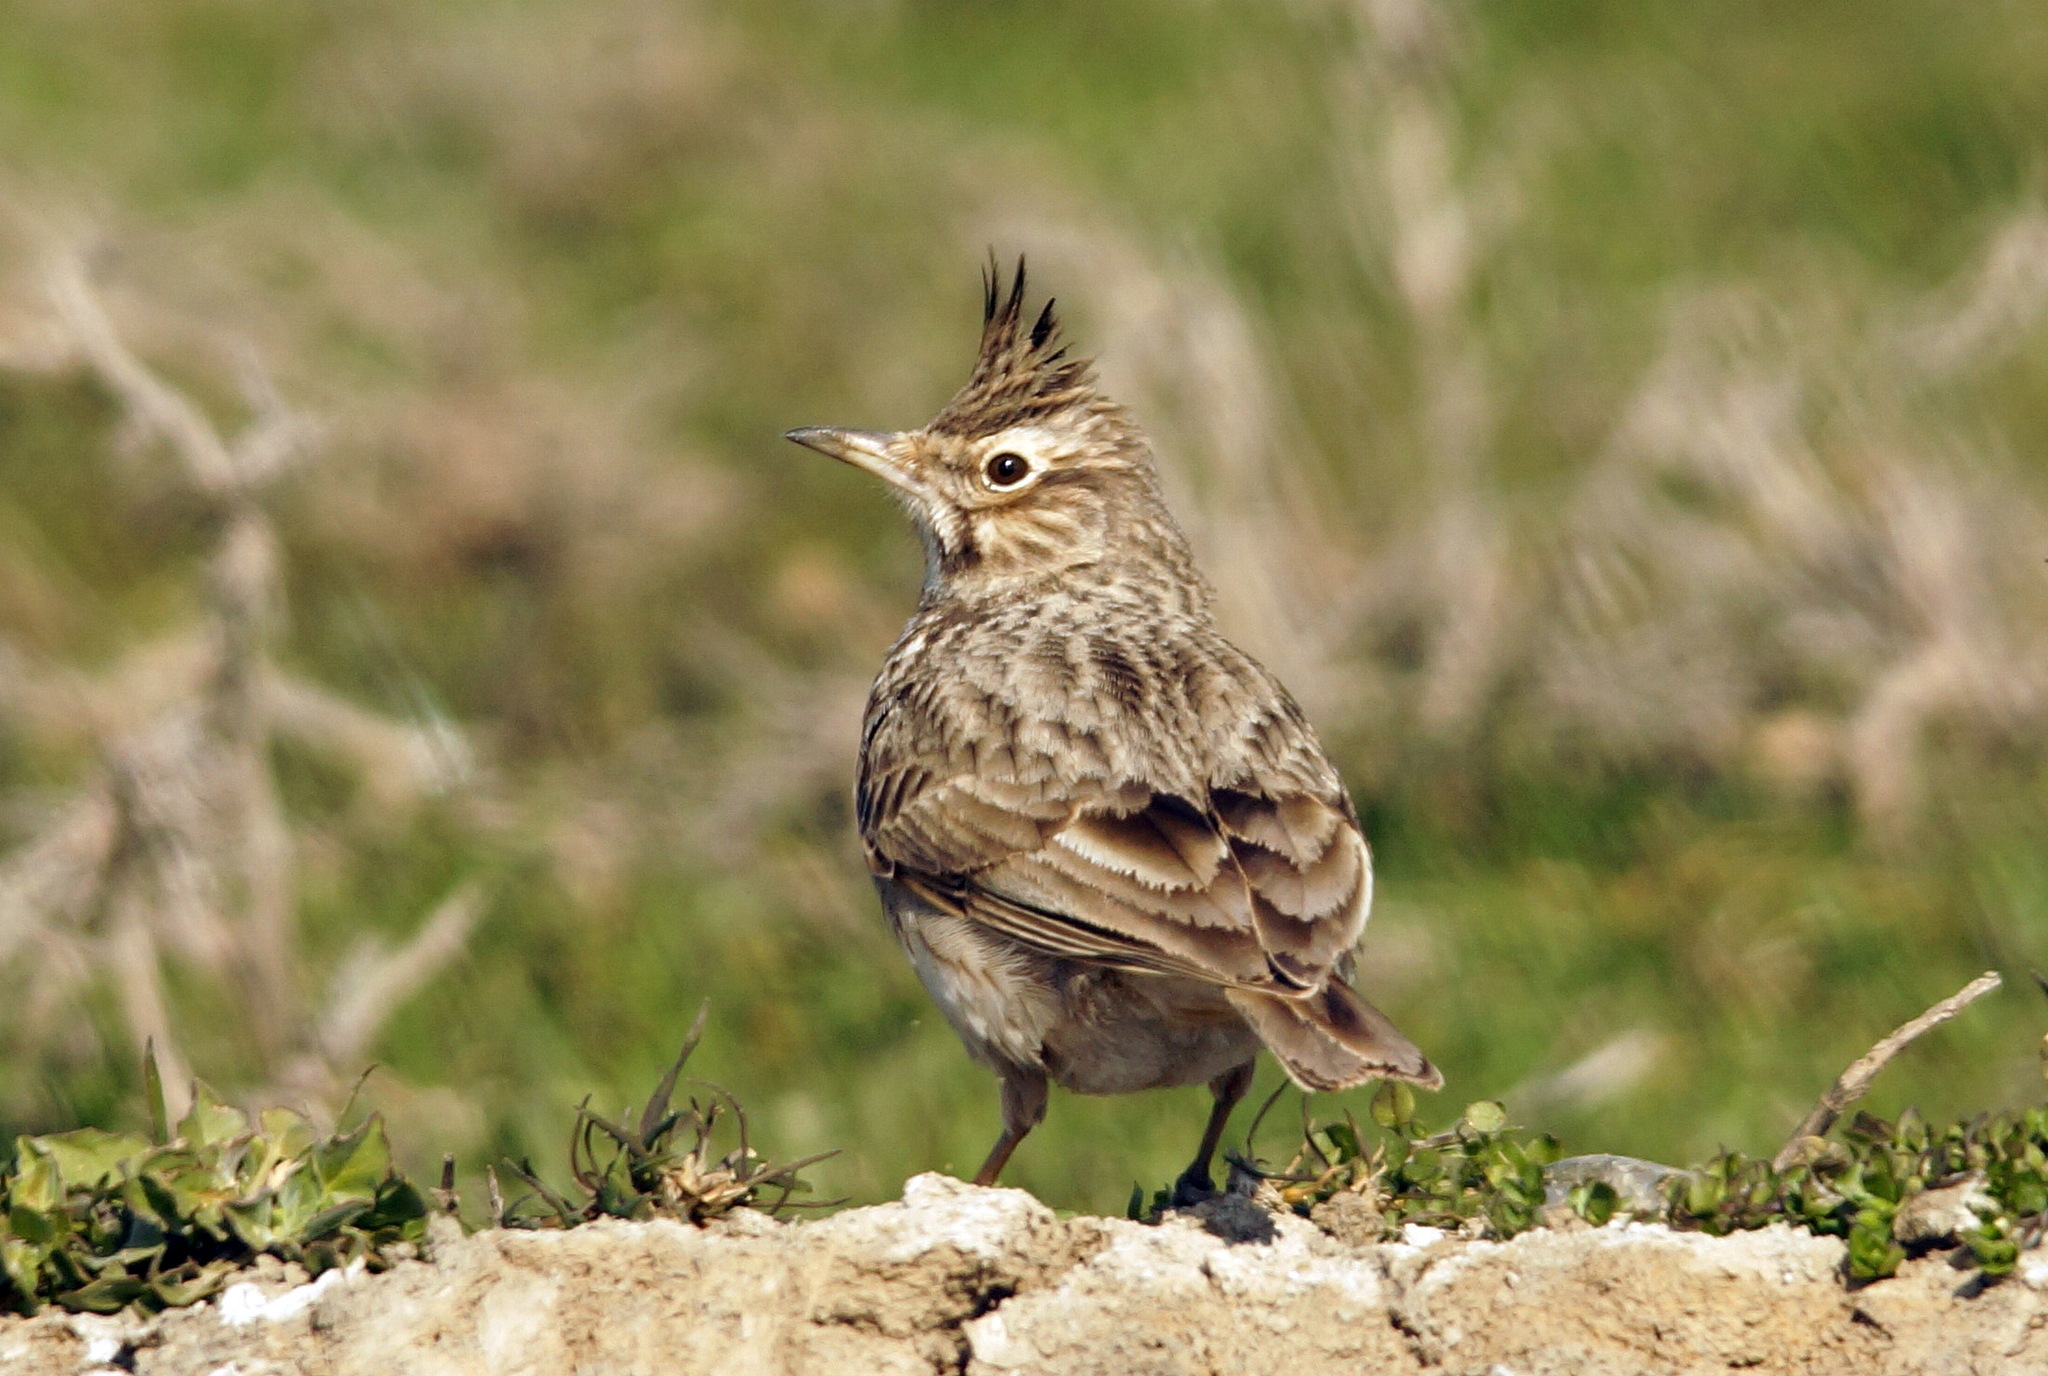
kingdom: Animalia
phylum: Chordata
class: Aves
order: Passeriformes
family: Alaudidae
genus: Galerida
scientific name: Galerida cristata
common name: Crested lark
